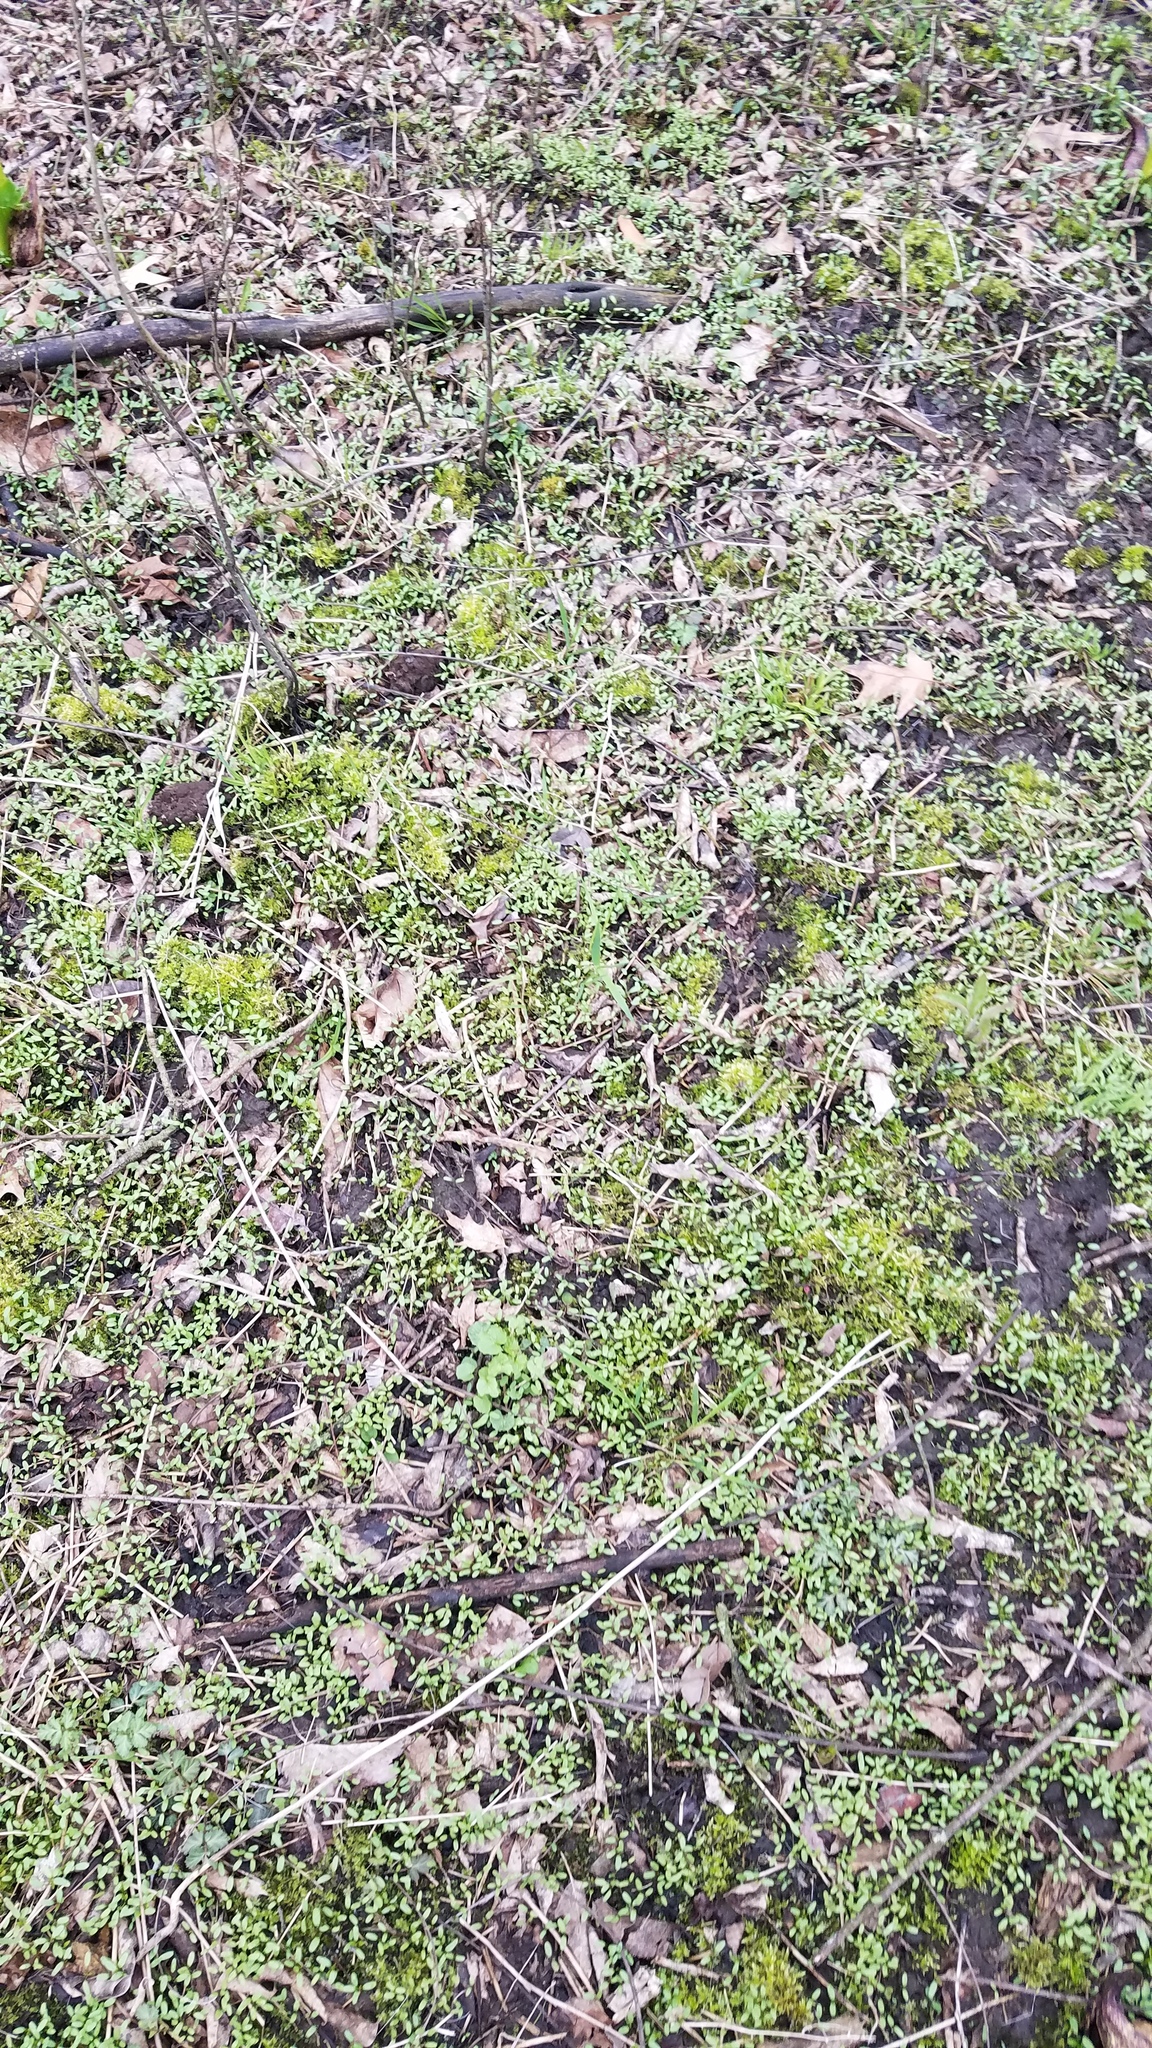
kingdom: Plantae
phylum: Tracheophyta
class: Magnoliopsida
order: Brassicales
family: Brassicaceae
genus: Alliaria
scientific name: Alliaria petiolata
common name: Garlic mustard
